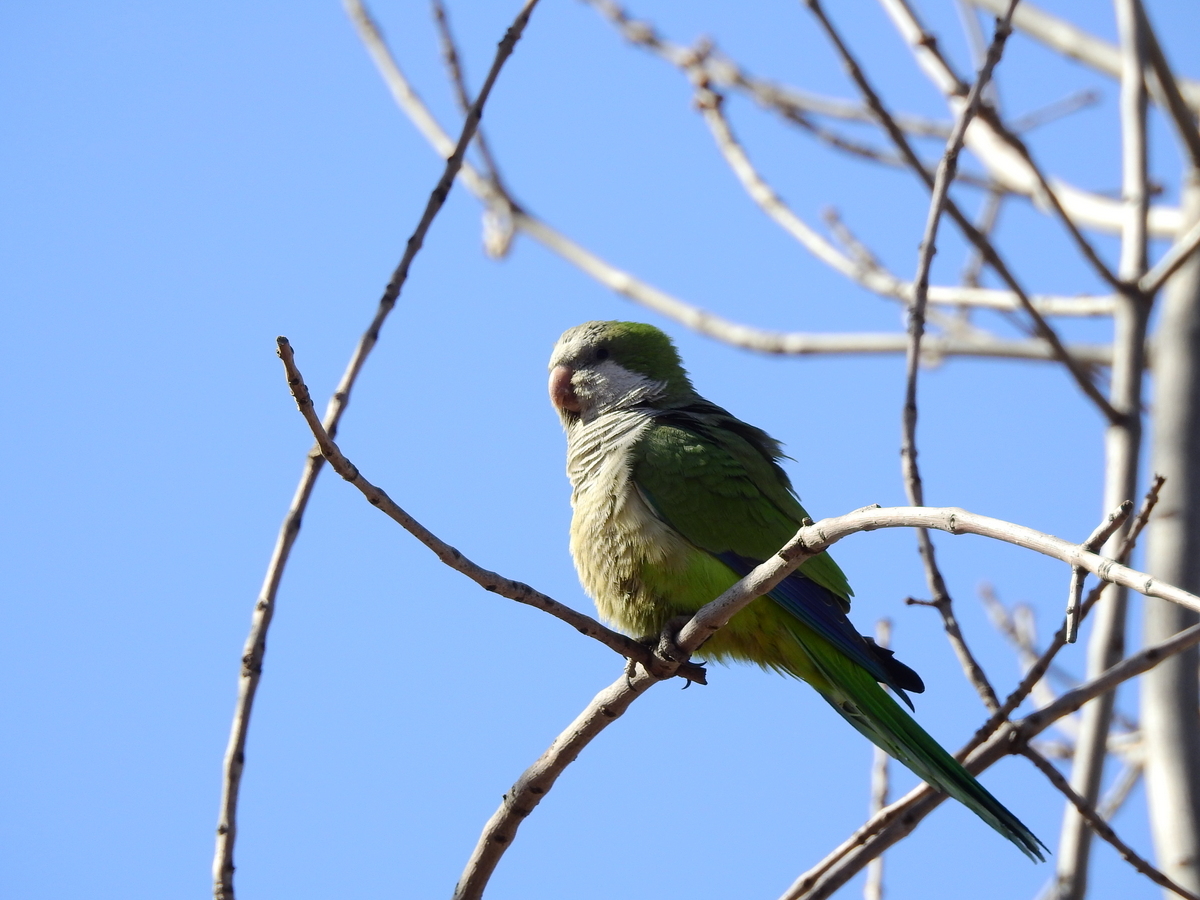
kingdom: Animalia
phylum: Chordata
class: Aves
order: Psittaciformes
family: Psittacidae
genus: Myiopsitta
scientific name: Myiopsitta monachus
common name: Monk parakeet
